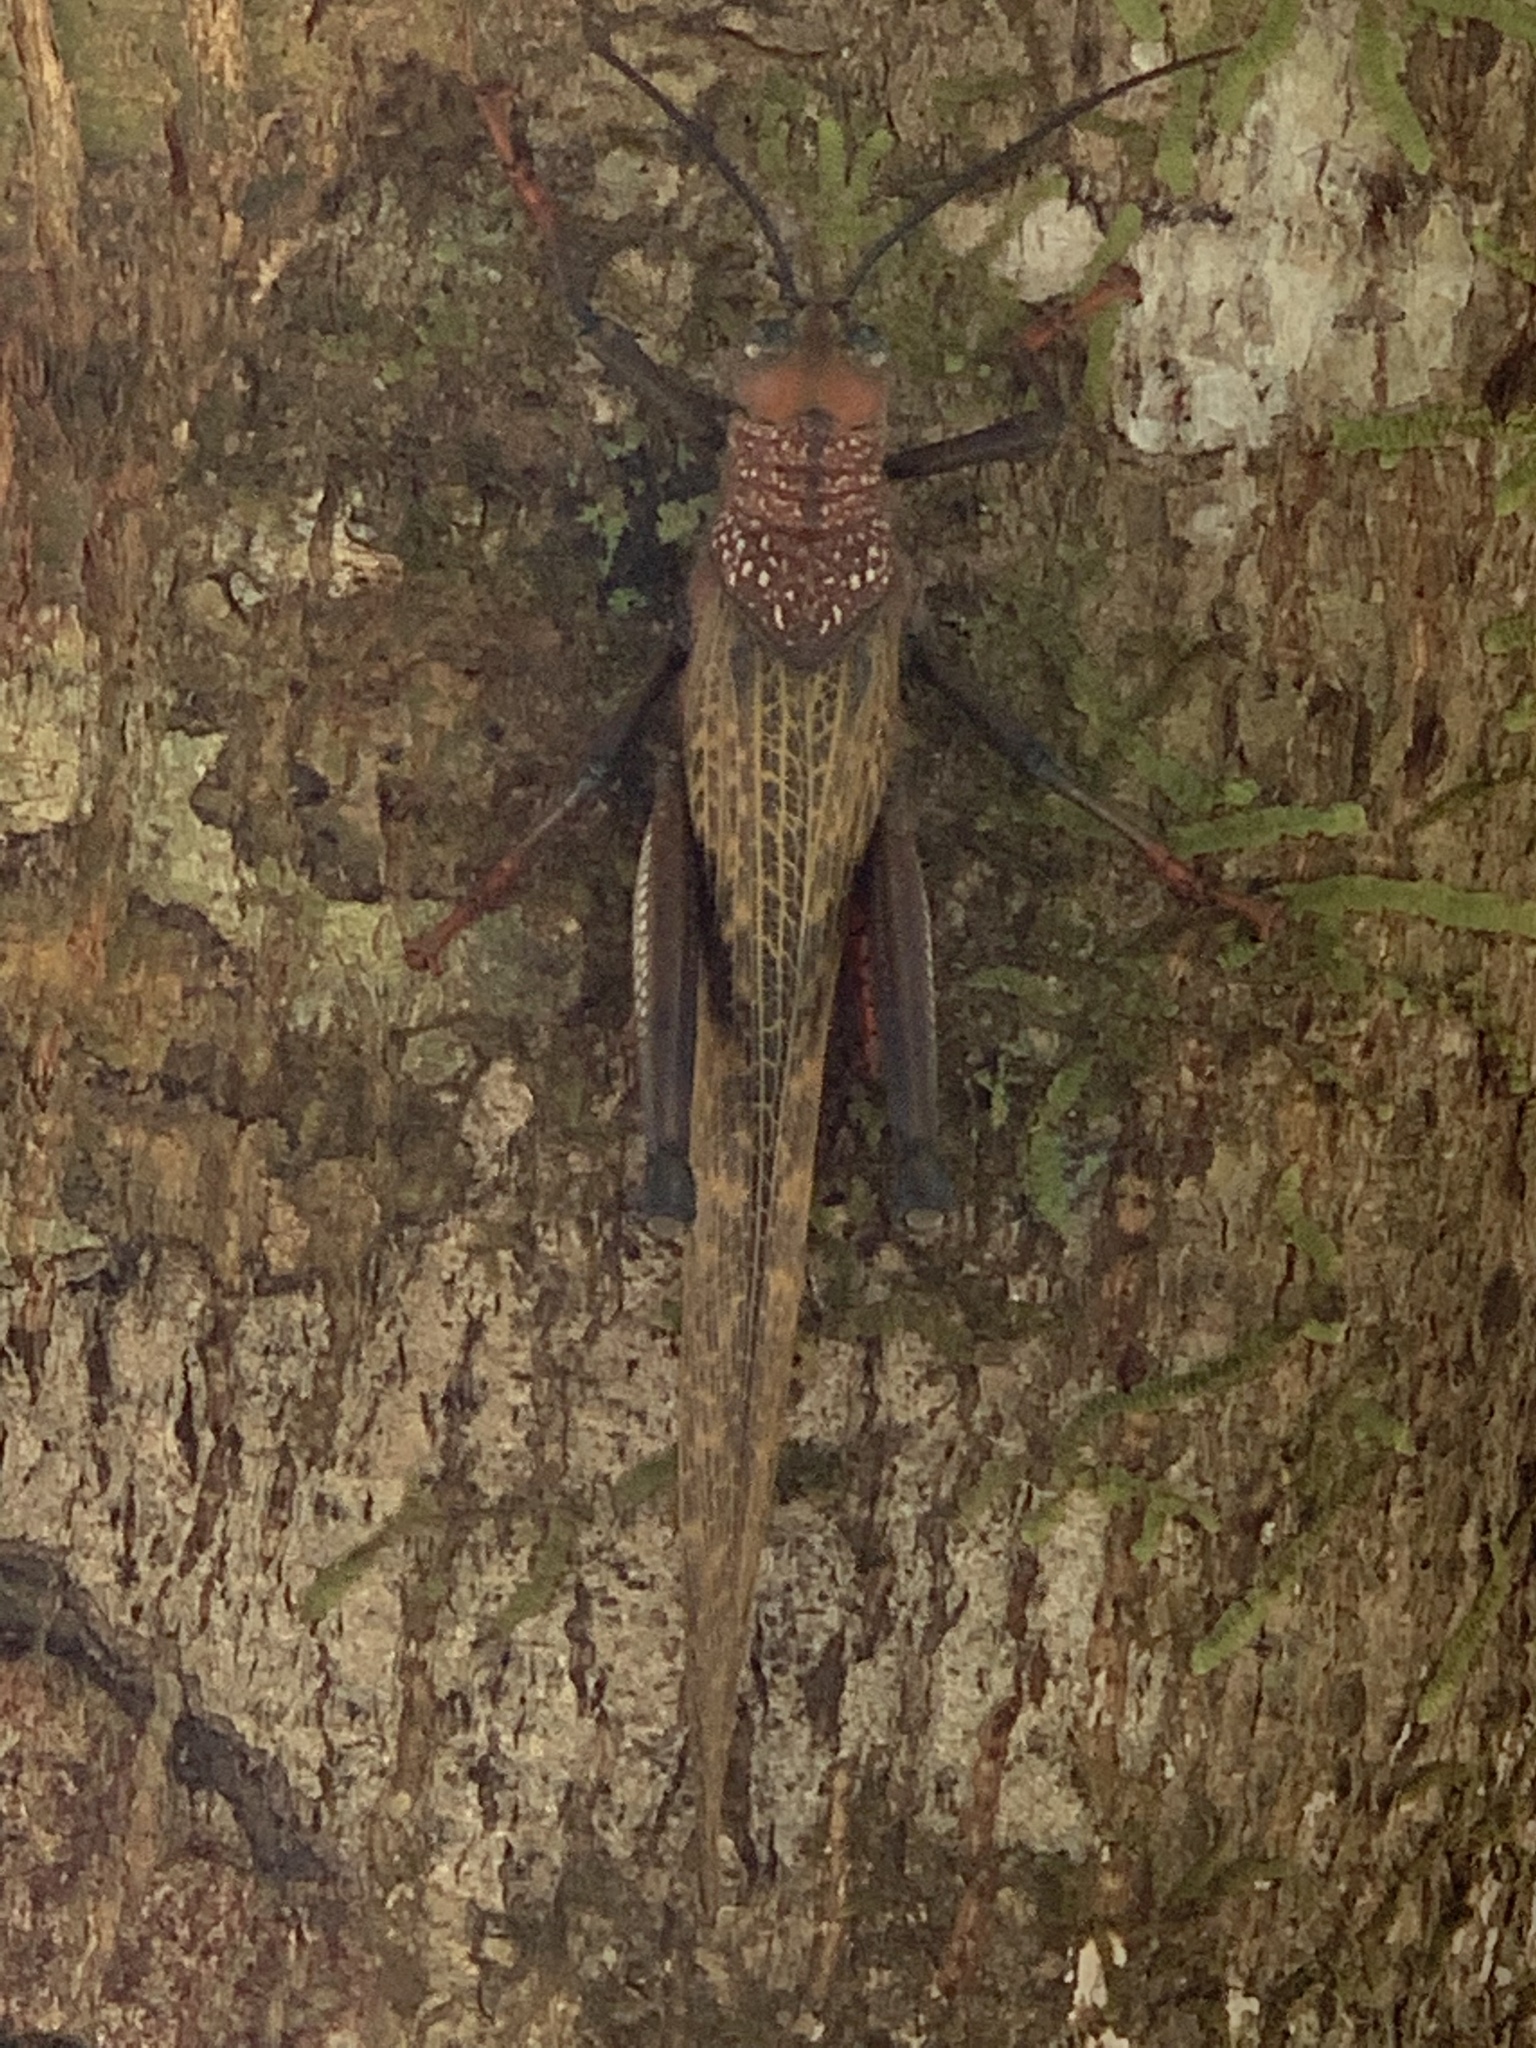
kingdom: Animalia
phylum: Arthropoda
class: Insecta
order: Orthoptera
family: Romaleidae
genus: Tropidacris
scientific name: Tropidacris cristata
